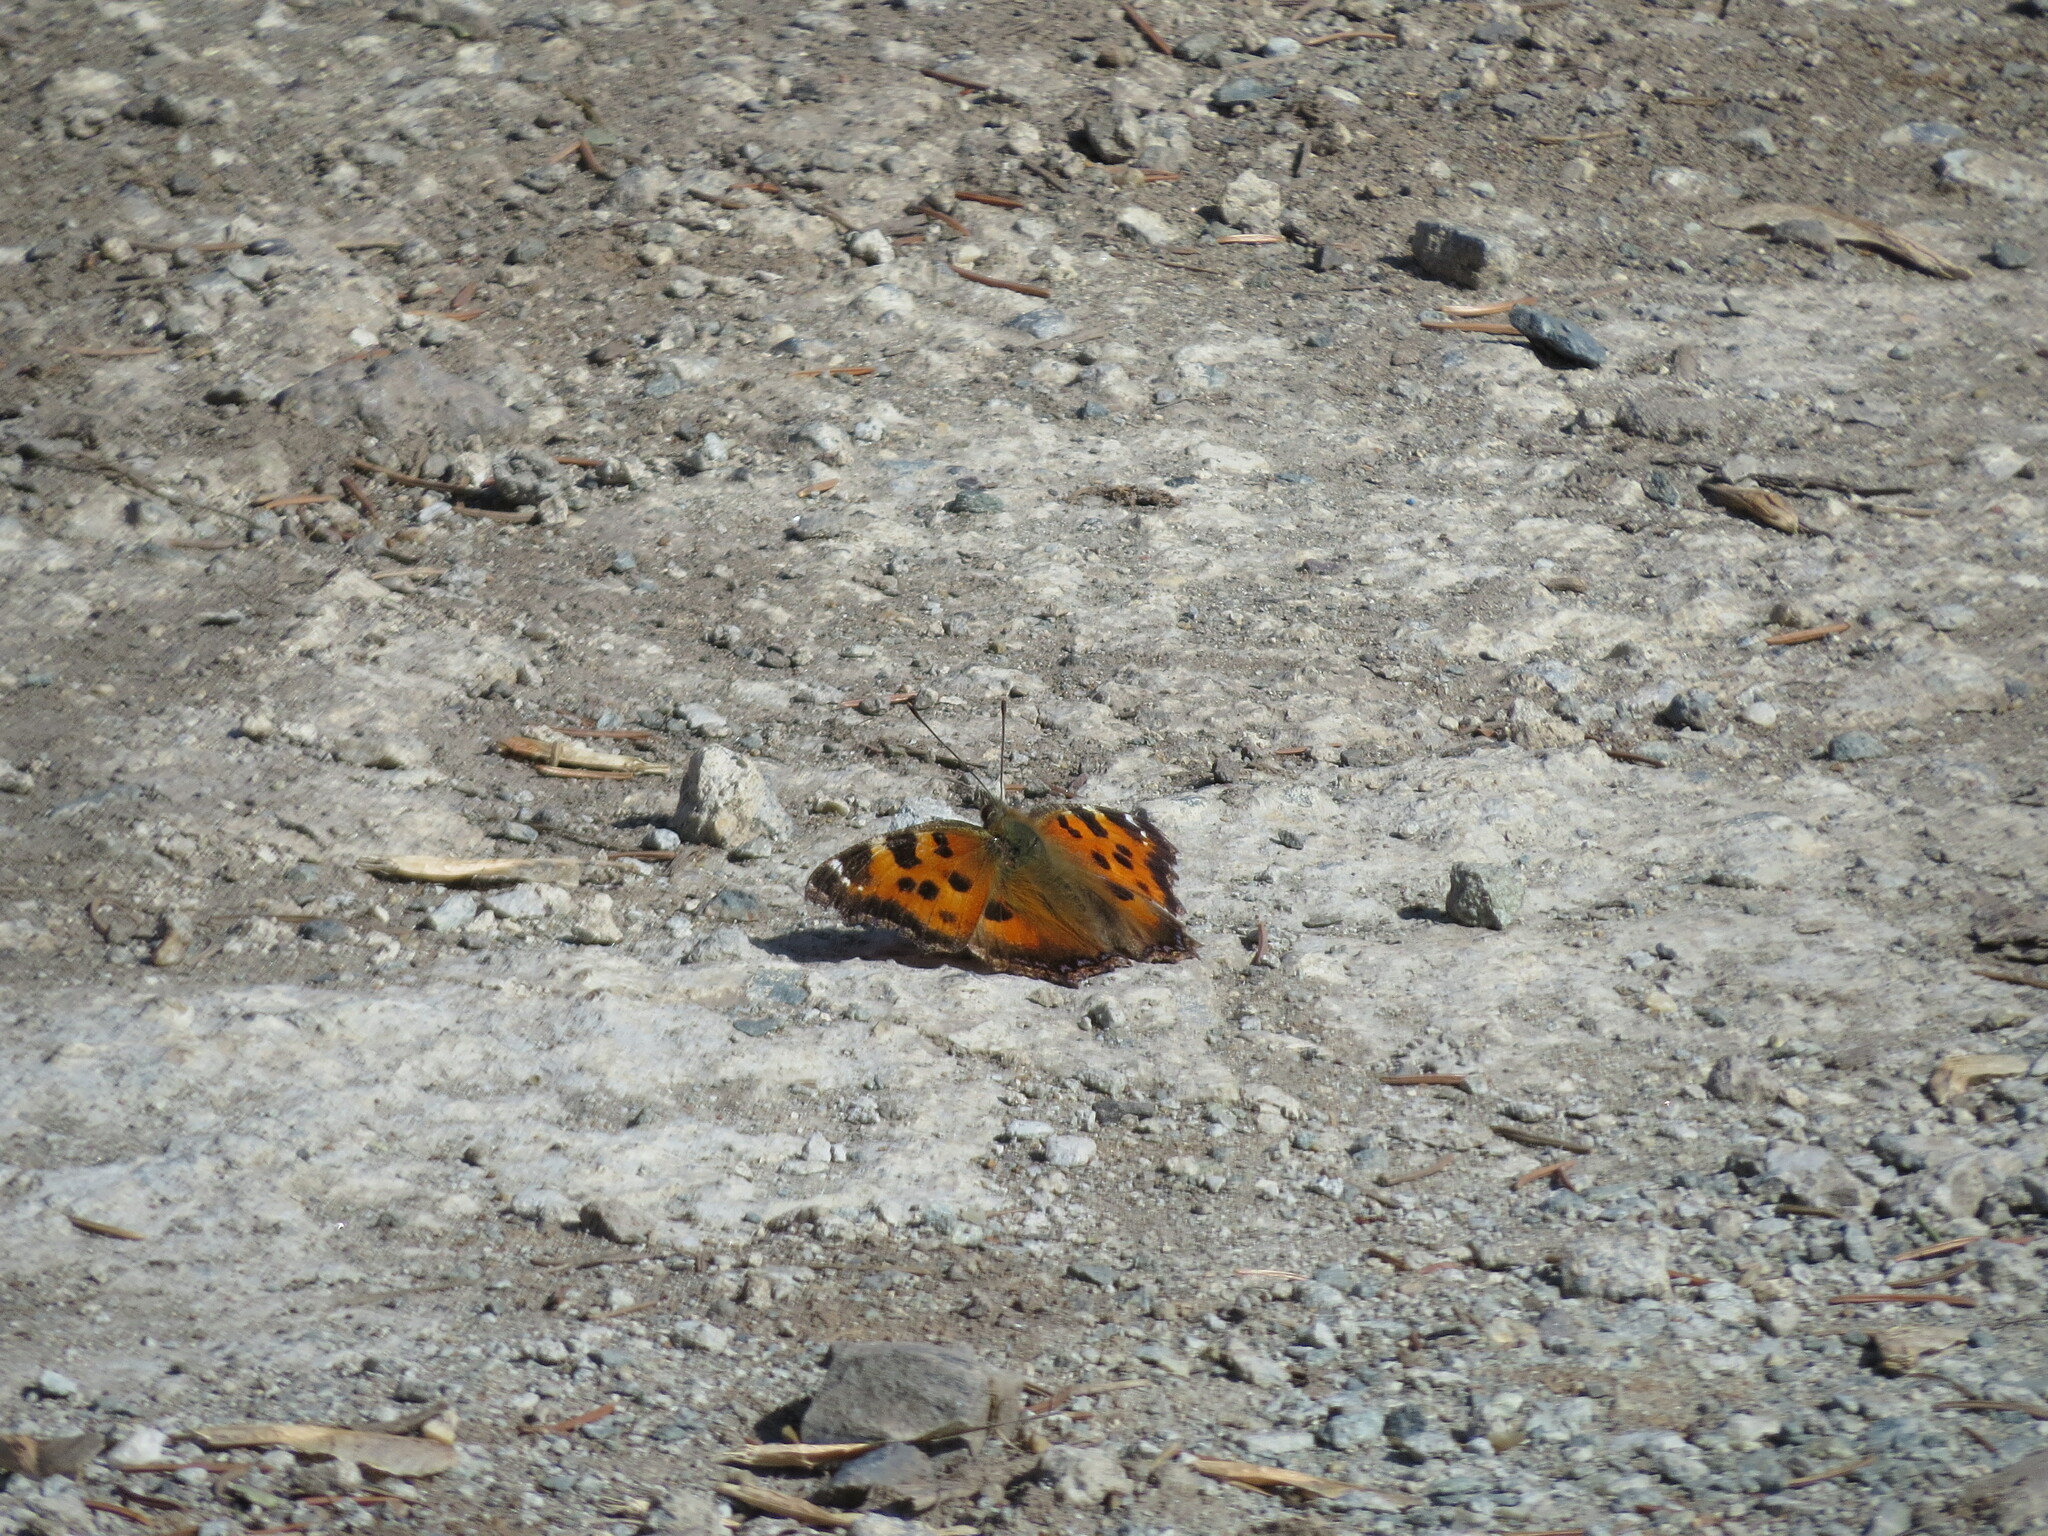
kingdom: Animalia
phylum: Arthropoda
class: Insecta
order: Lepidoptera
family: Nymphalidae
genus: Nymphalis
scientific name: Nymphalis xanthomelas
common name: Scarce tortoiseshell
